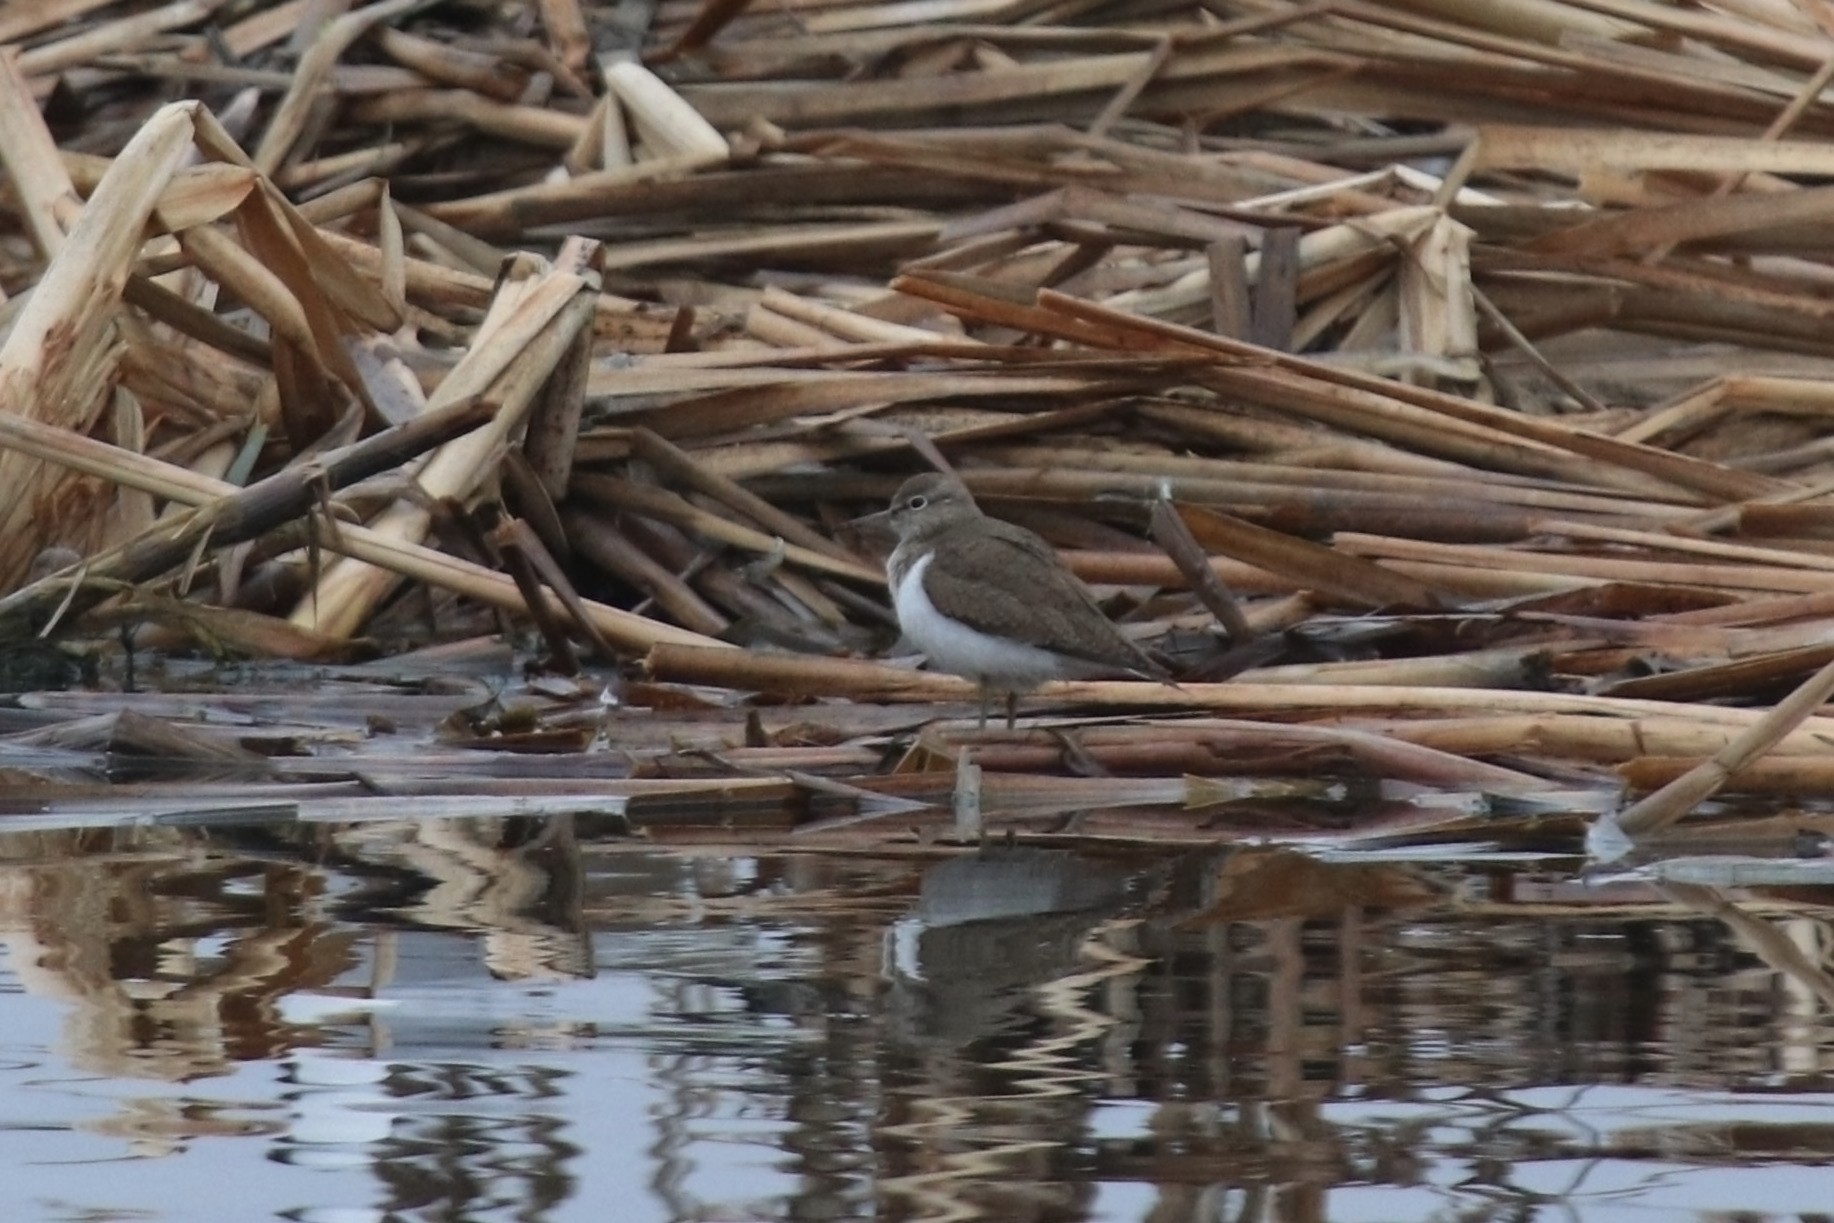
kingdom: Animalia
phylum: Chordata
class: Aves
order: Charadriiformes
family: Scolopacidae
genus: Actitis
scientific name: Actitis hypoleucos
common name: Common sandpiper
